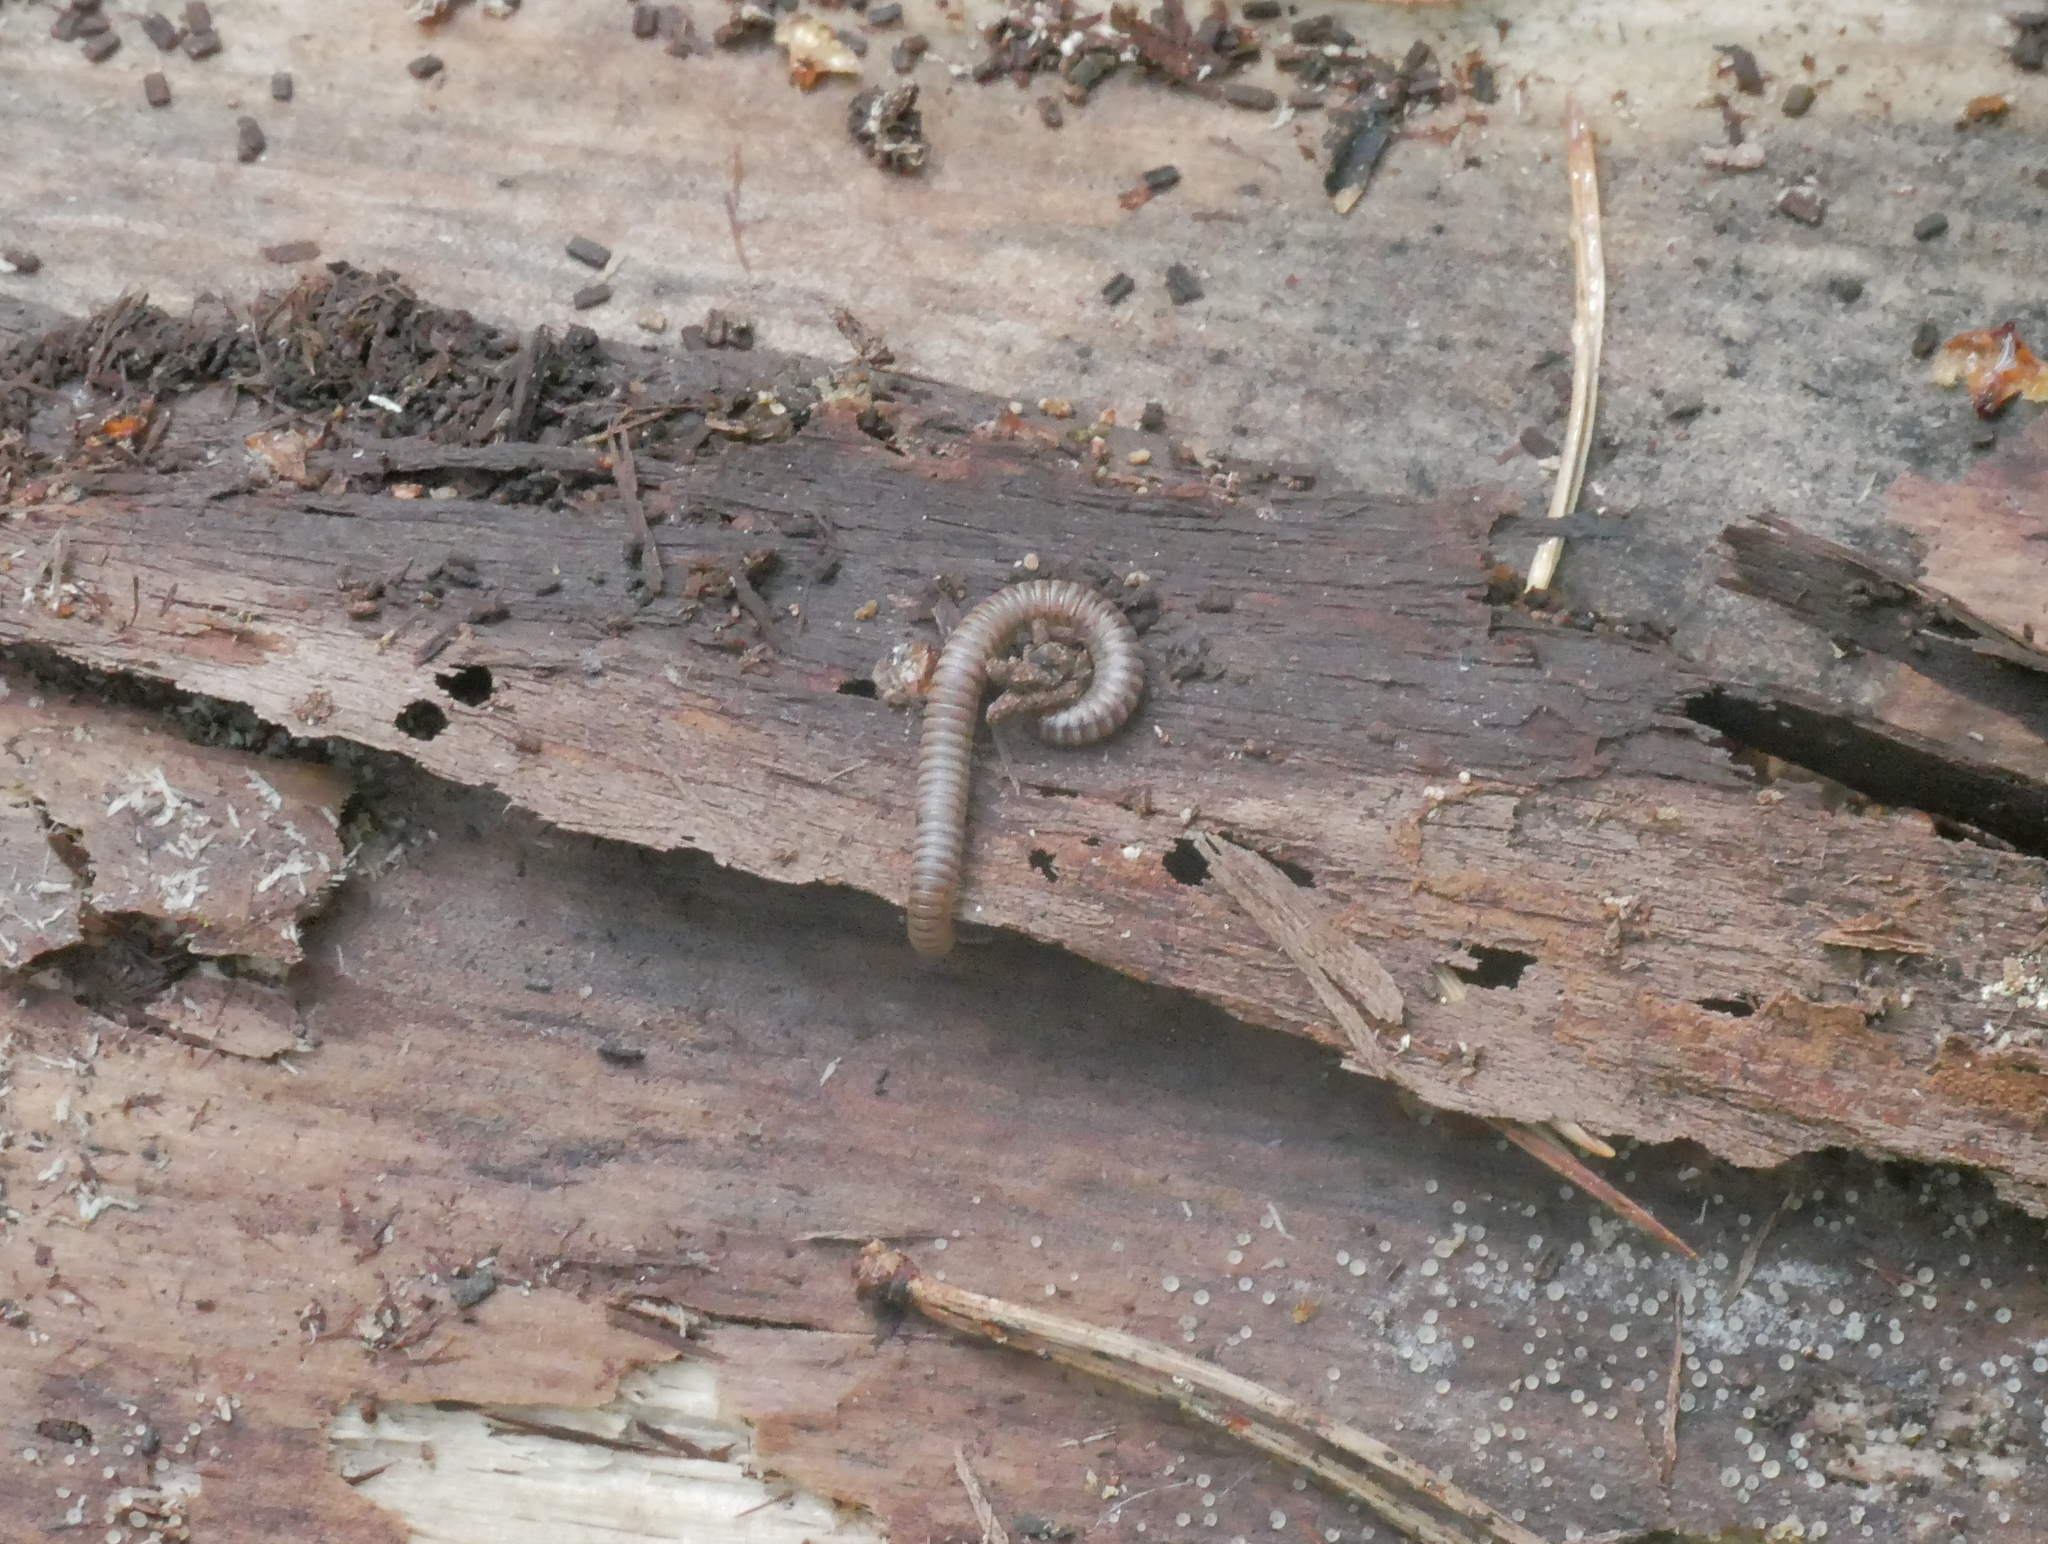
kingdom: Animalia
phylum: Arthropoda
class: Diplopoda
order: Julida
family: Julidae
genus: Cylindroiulus
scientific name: Cylindroiulus punctatus
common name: Blunt-tailed millipede
